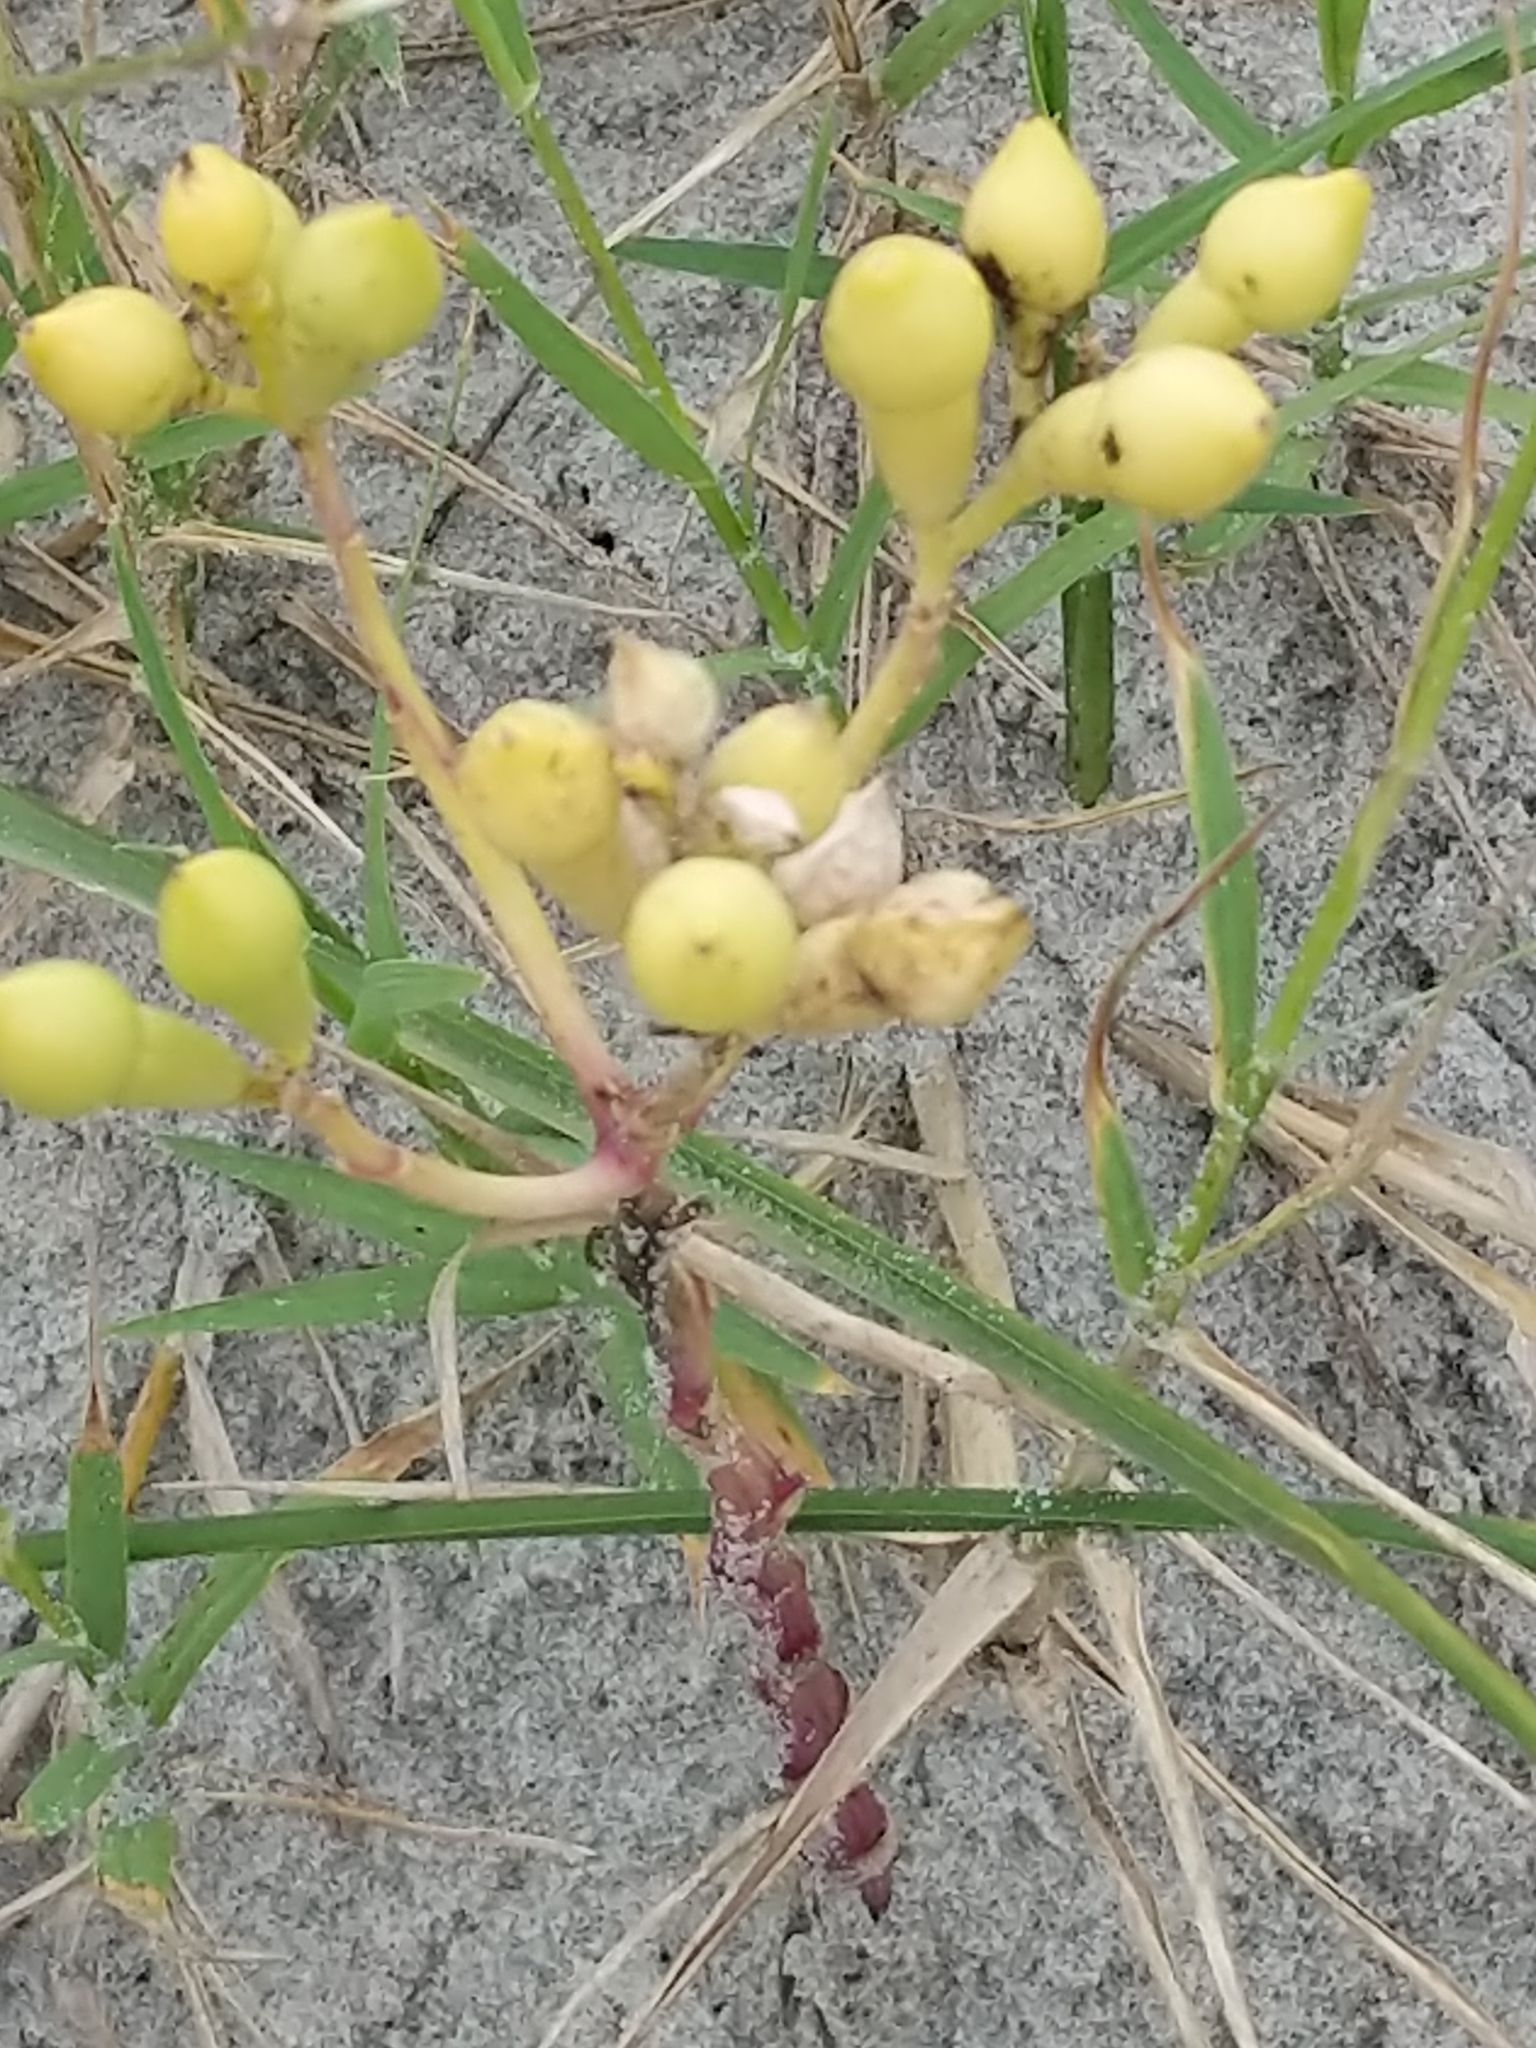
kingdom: Plantae
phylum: Tracheophyta
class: Magnoliopsida
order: Brassicales
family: Brassicaceae
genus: Cakile
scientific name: Cakile edentula
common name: American sea rocket
